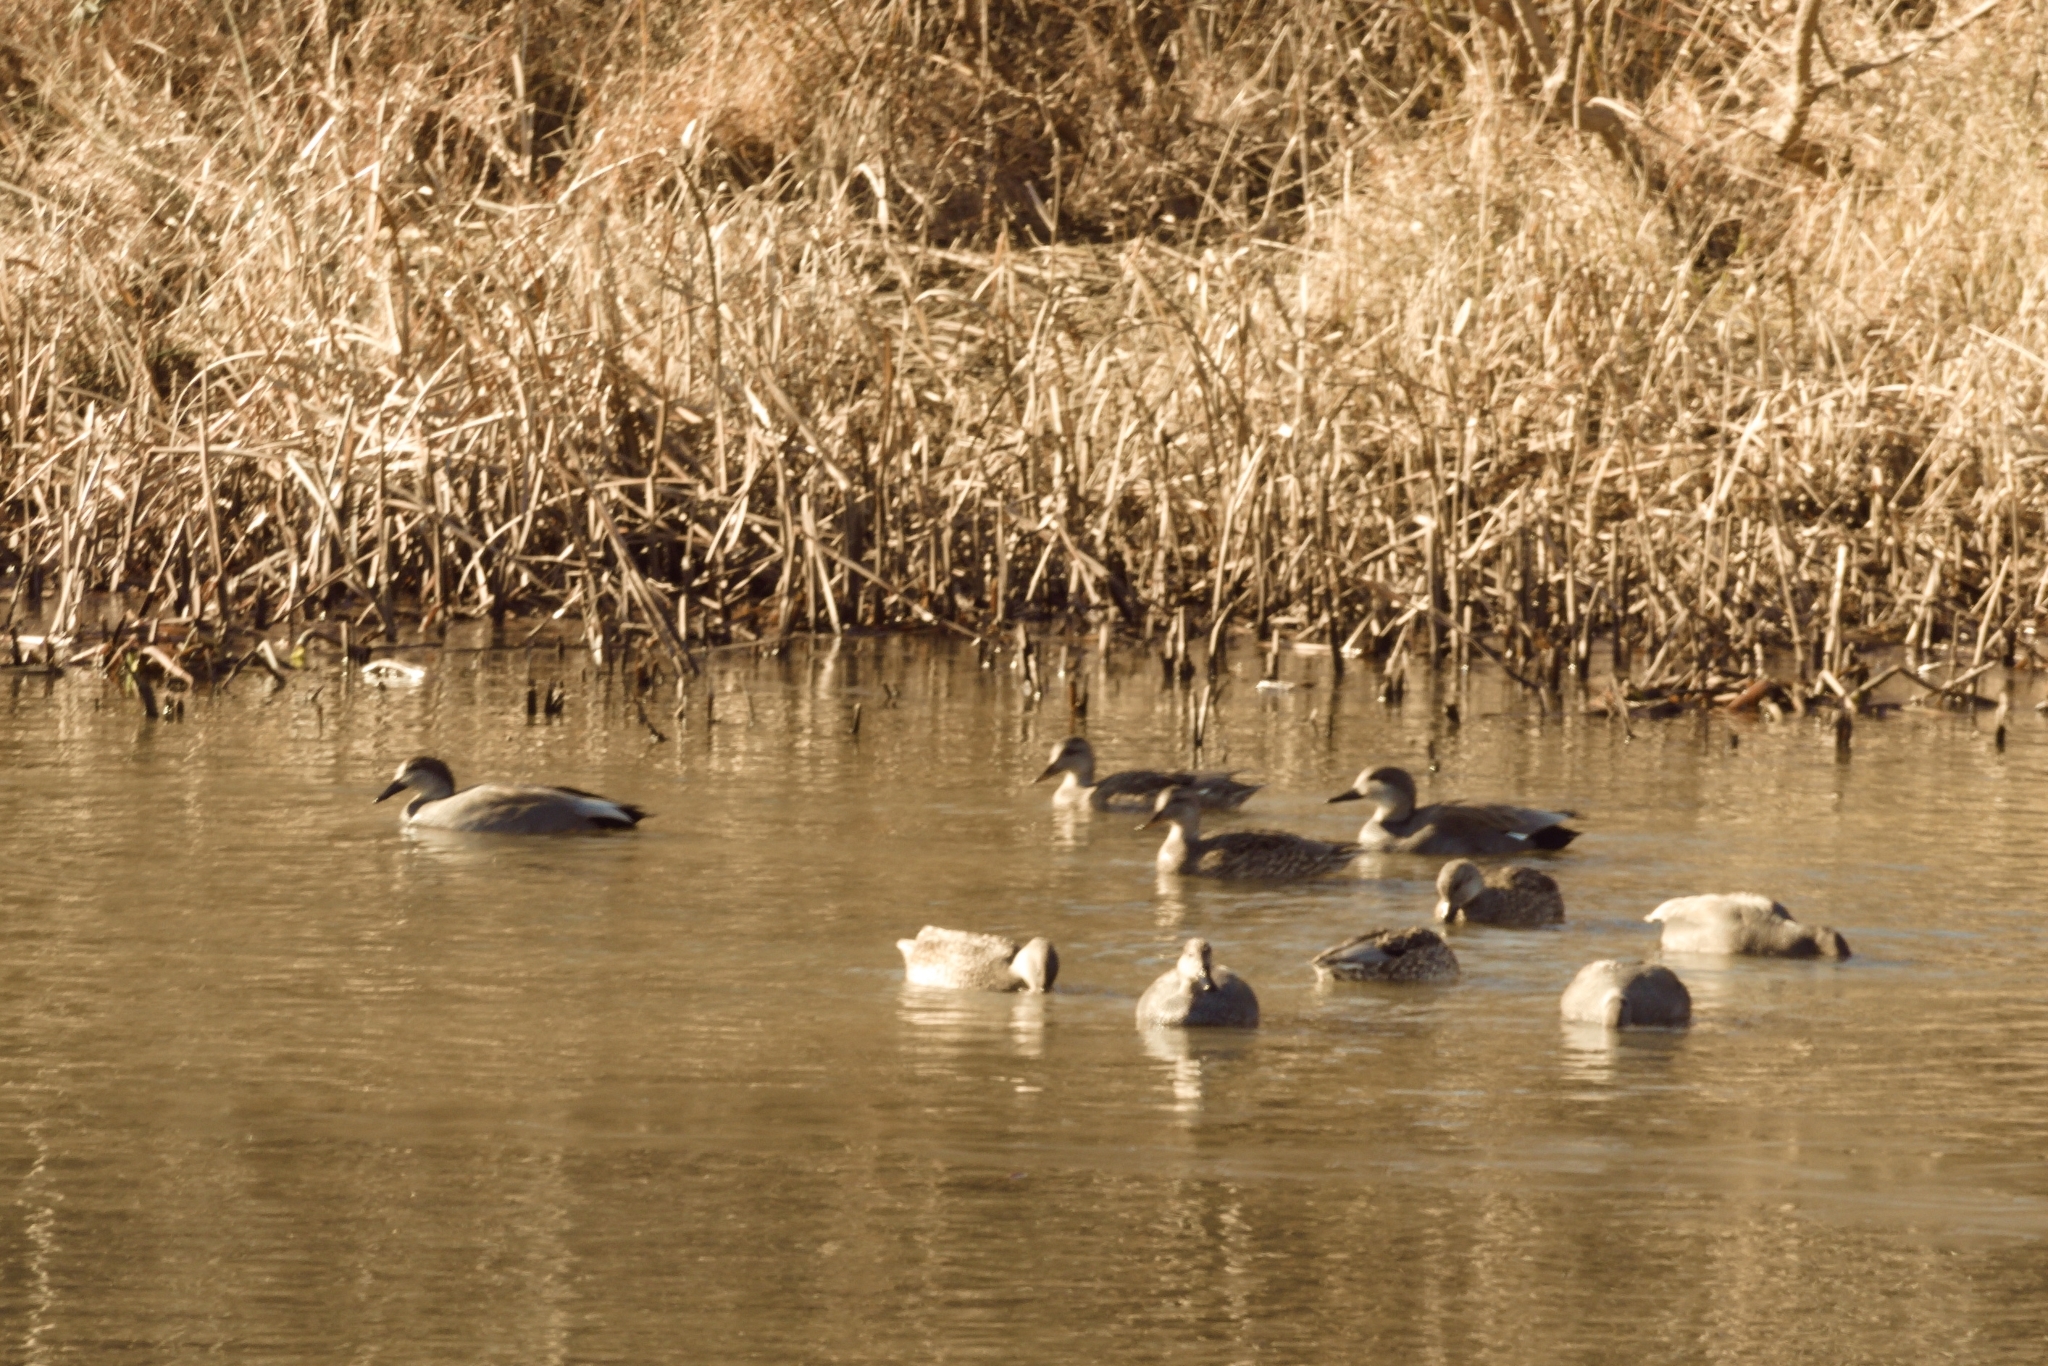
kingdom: Animalia
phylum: Chordata
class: Aves
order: Anseriformes
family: Anatidae
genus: Mareca
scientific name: Mareca strepera
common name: Gadwall
